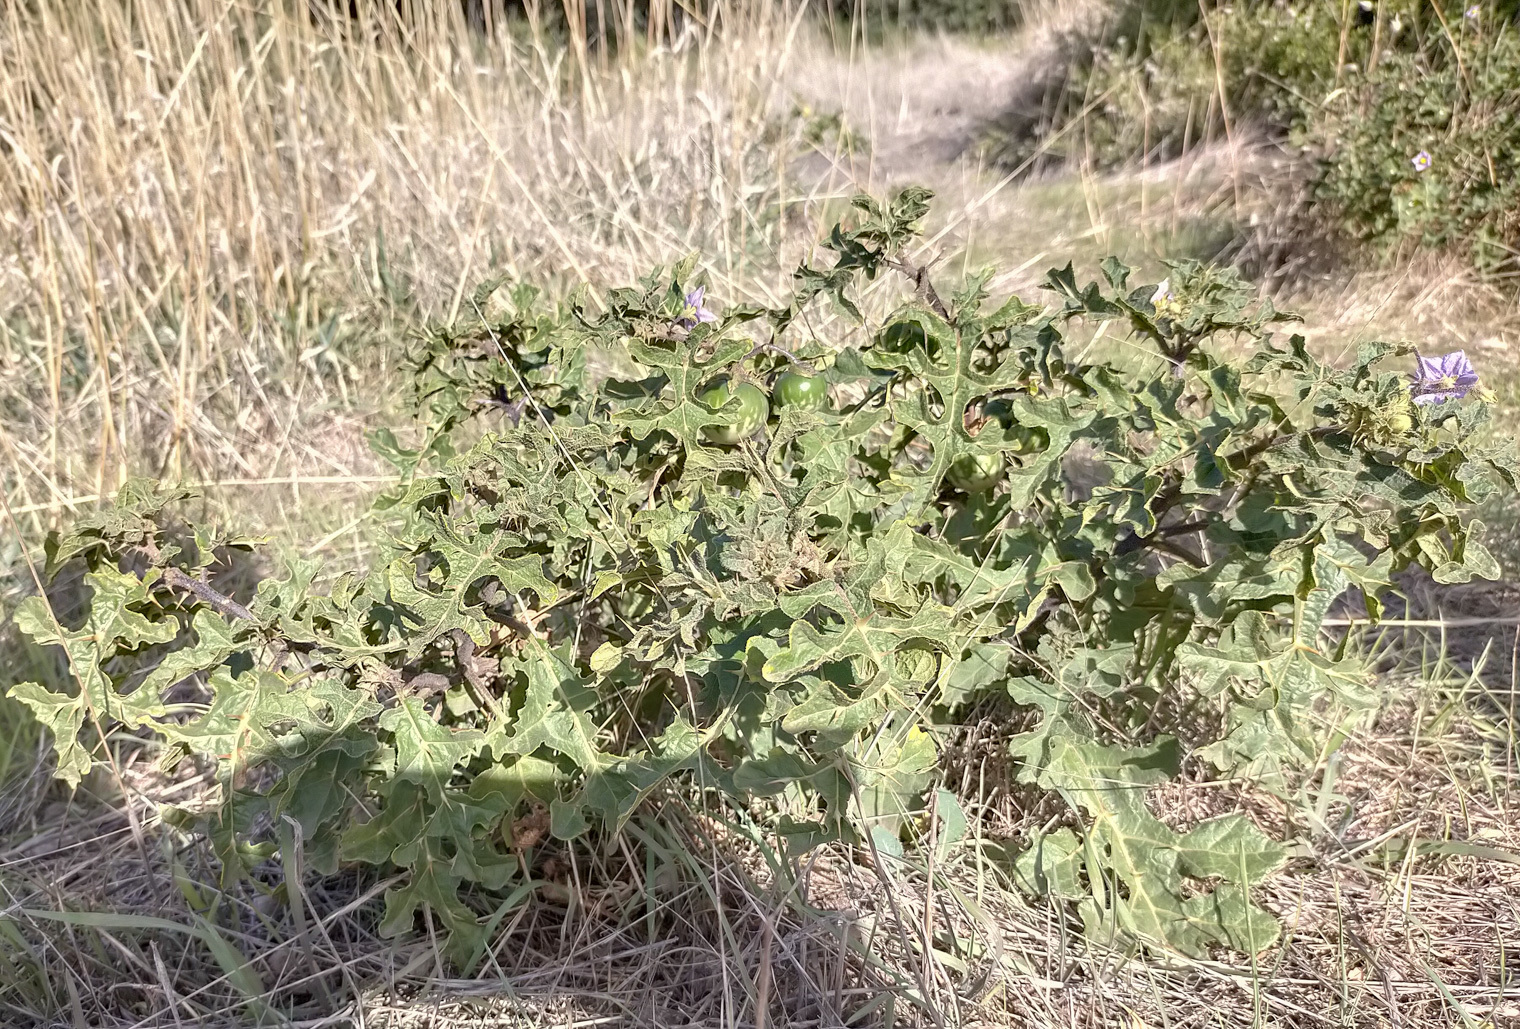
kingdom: Plantae
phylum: Tracheophyta
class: Magnoliopsida
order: Solanales
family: Solanaceae
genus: Solanum
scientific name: Solanum linnaeanum
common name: Nightshade
